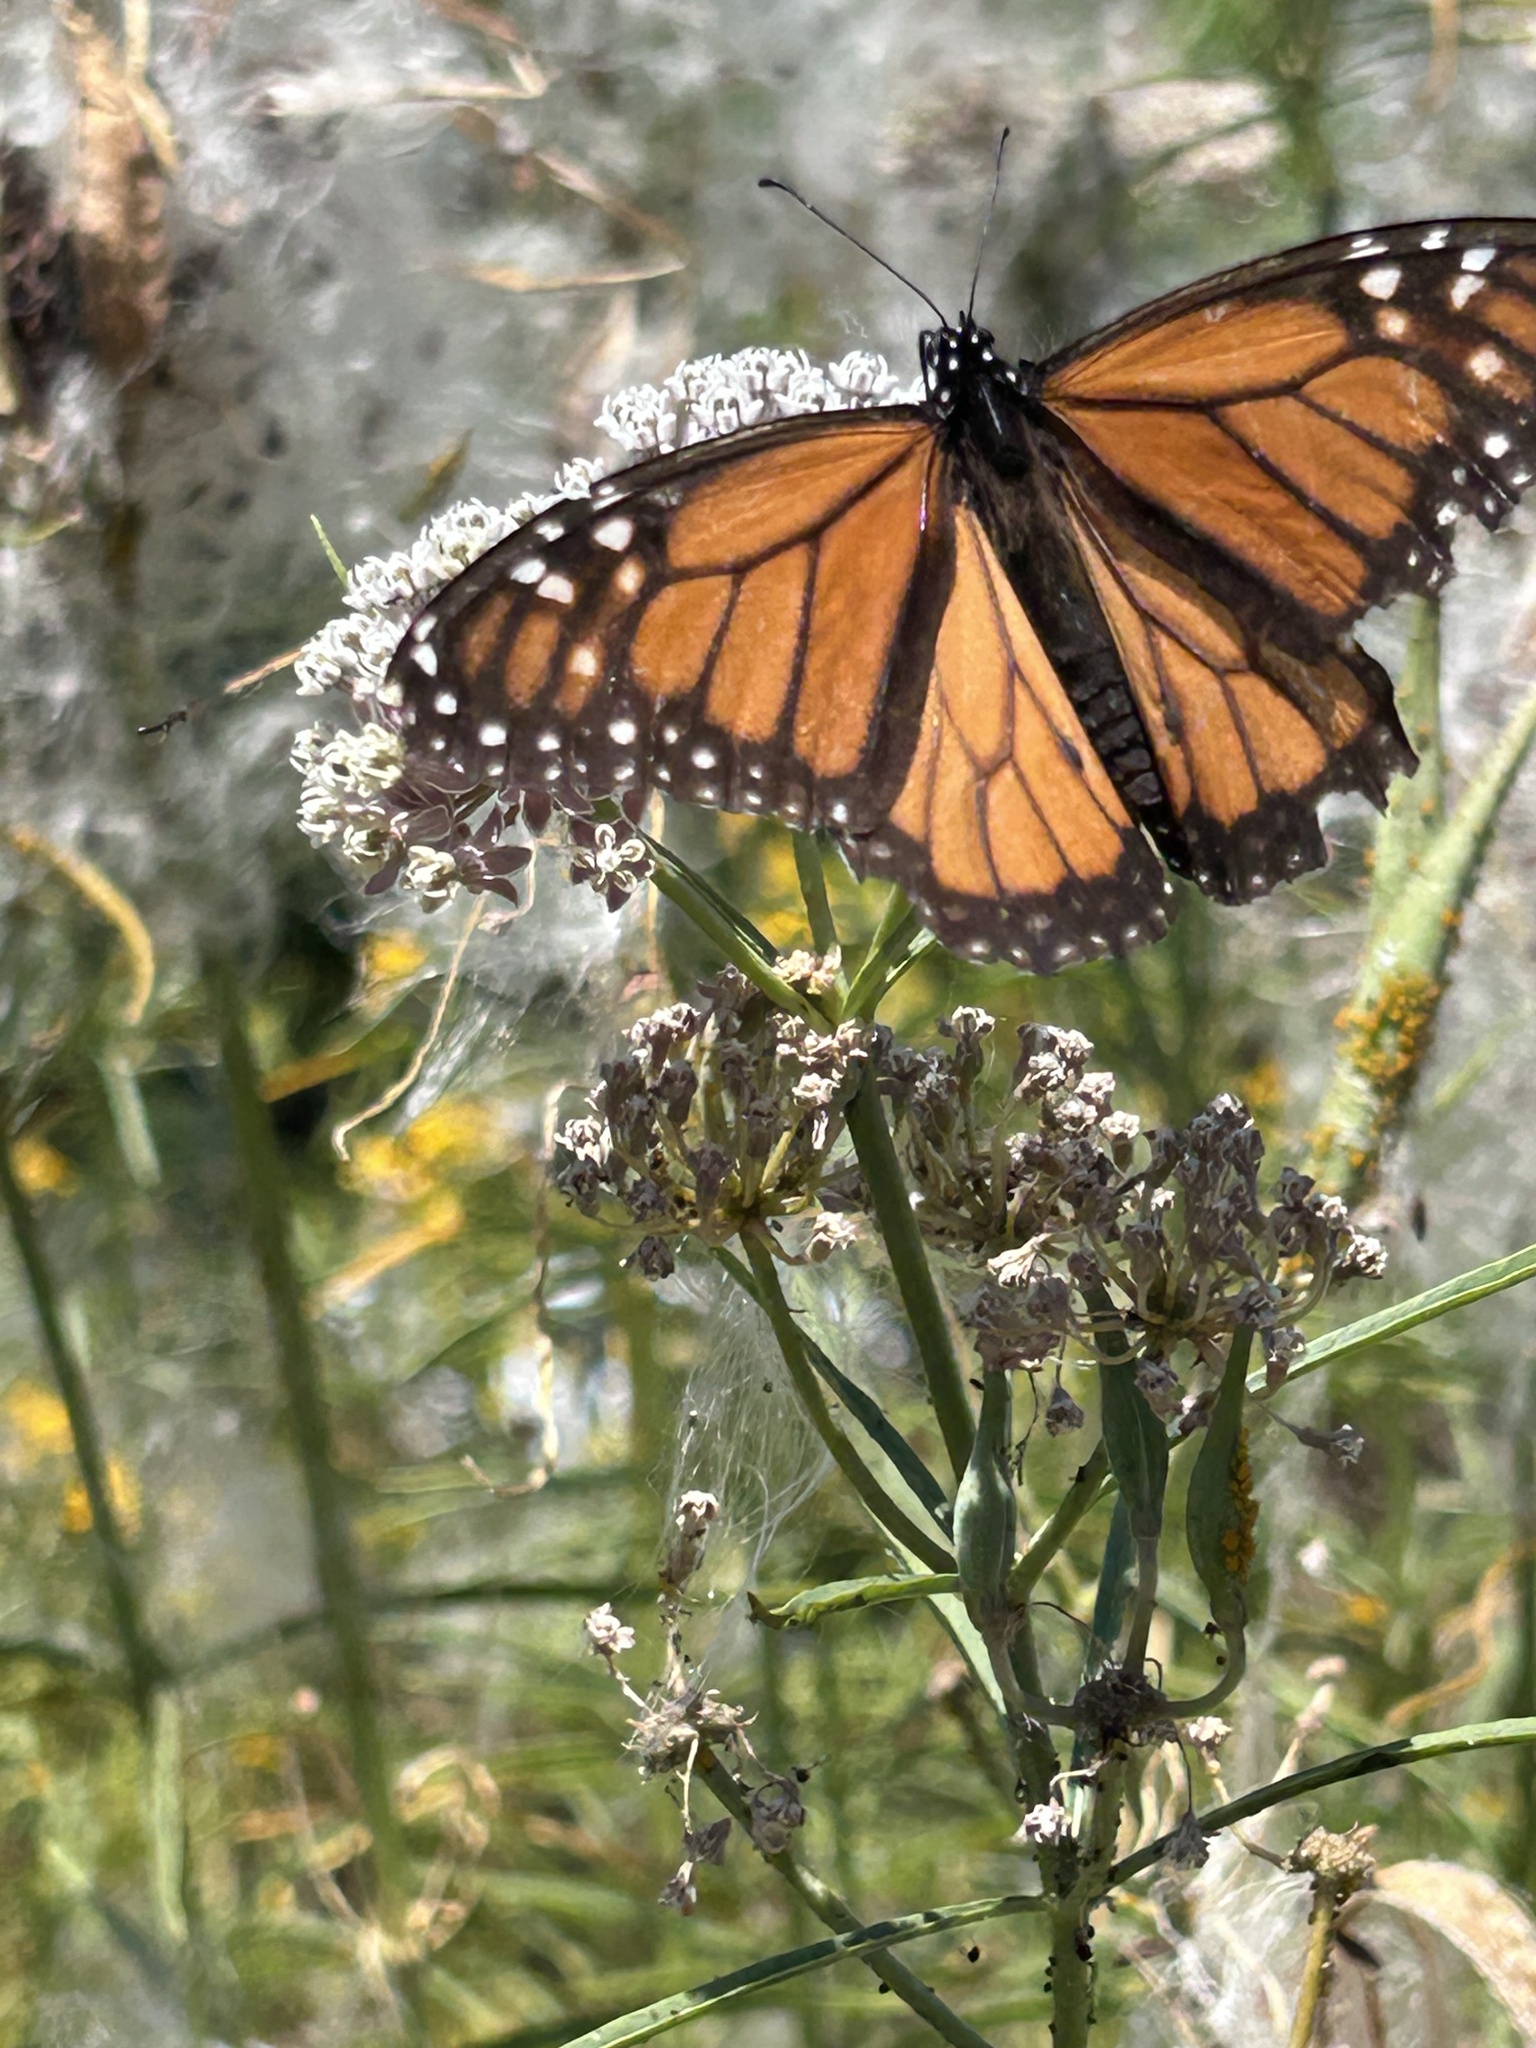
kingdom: Animalia
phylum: Arthropoda
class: Insecta
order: Lepidoptera
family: Nymphalidae
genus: Danaus
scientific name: Danaus plexippus
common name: Monarch
